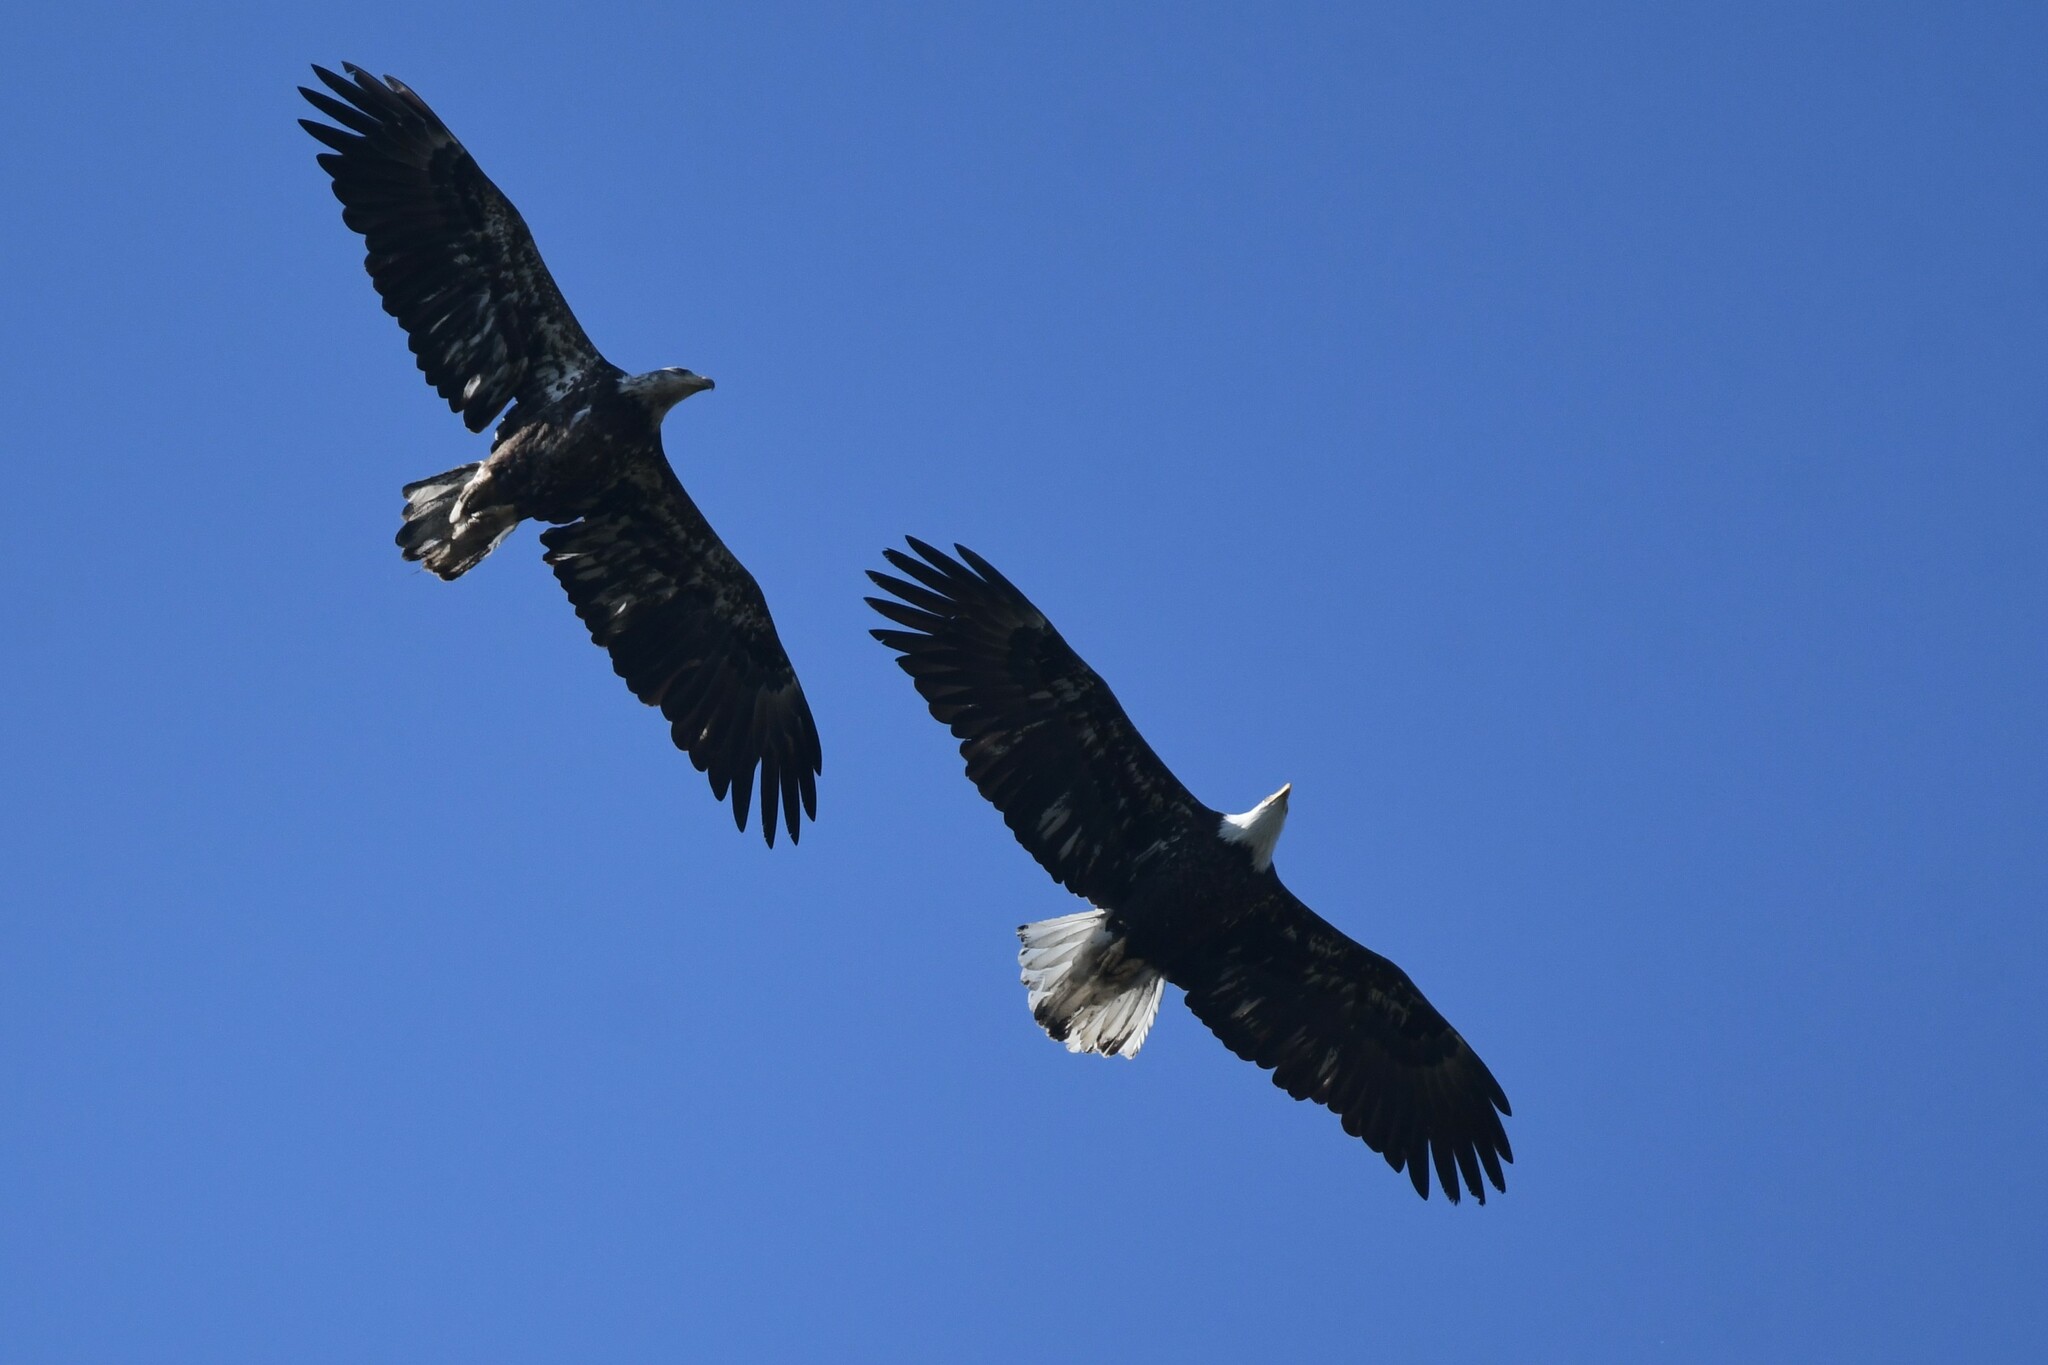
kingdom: Animalia
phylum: Chordata
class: Aves
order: Accipitriformes
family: Accipitridae
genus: Haliaeetus
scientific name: Haliaeetus leucocephalus
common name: Bald eagle
